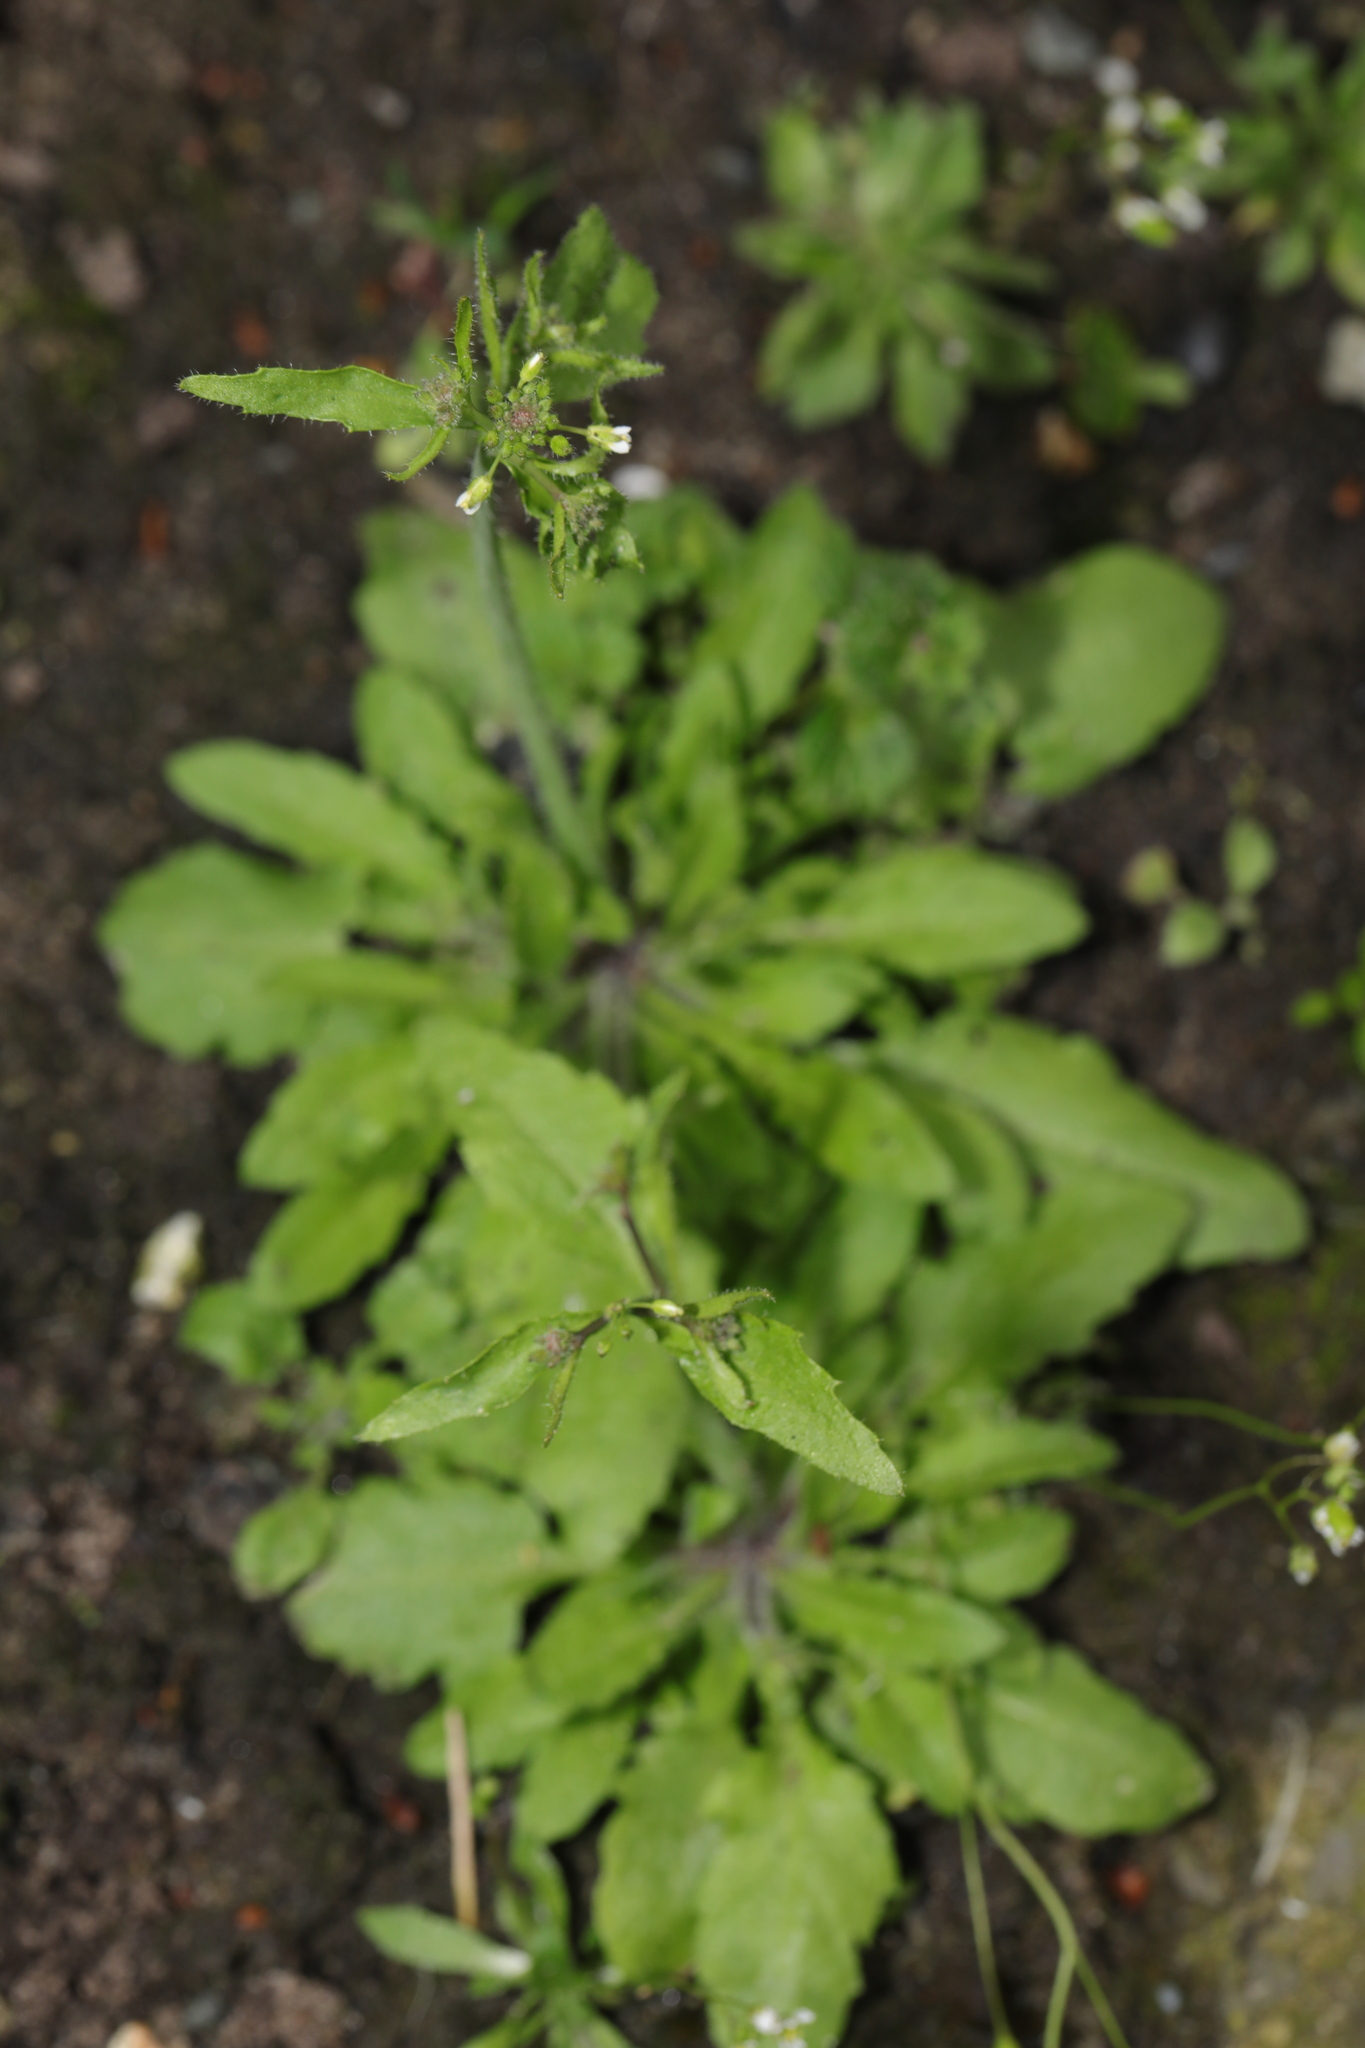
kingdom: Plantae
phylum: Tracheophyta
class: Magnoliopsida
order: Brassicales
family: Brassicaceae
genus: Arabidopsis
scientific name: Arabidopsis thaliana
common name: Thale cress
